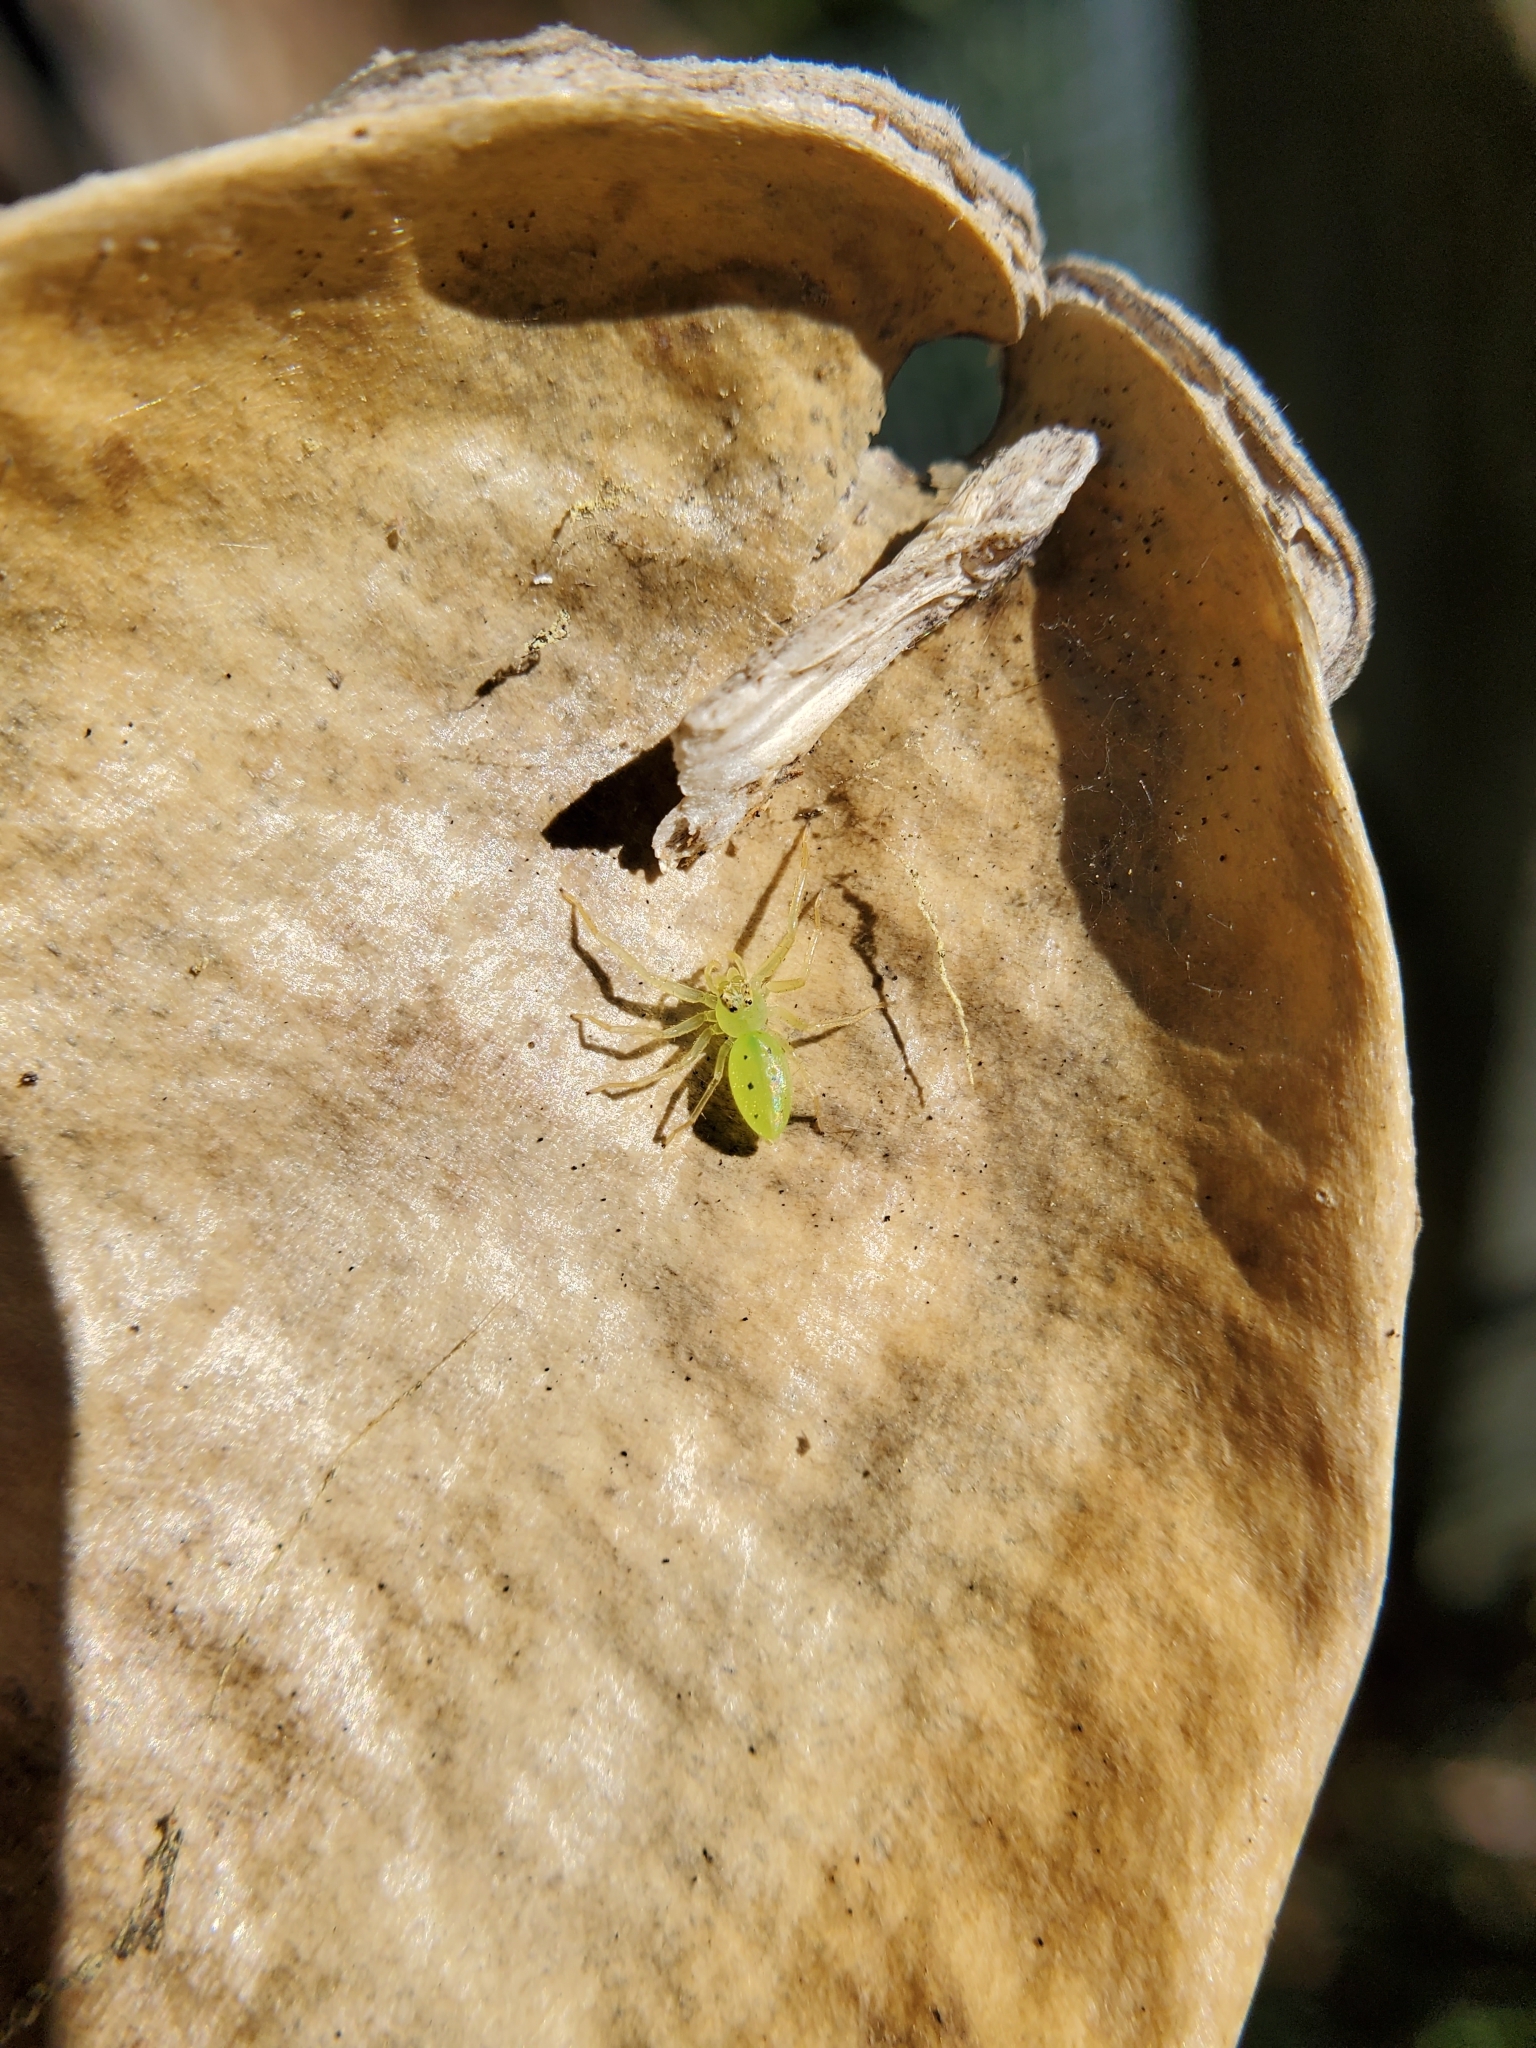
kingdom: Animalia
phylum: Arthropoda
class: Arachnida
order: Araneae
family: Salticidae
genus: Lyssomanes
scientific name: Lyssomanes viridis
